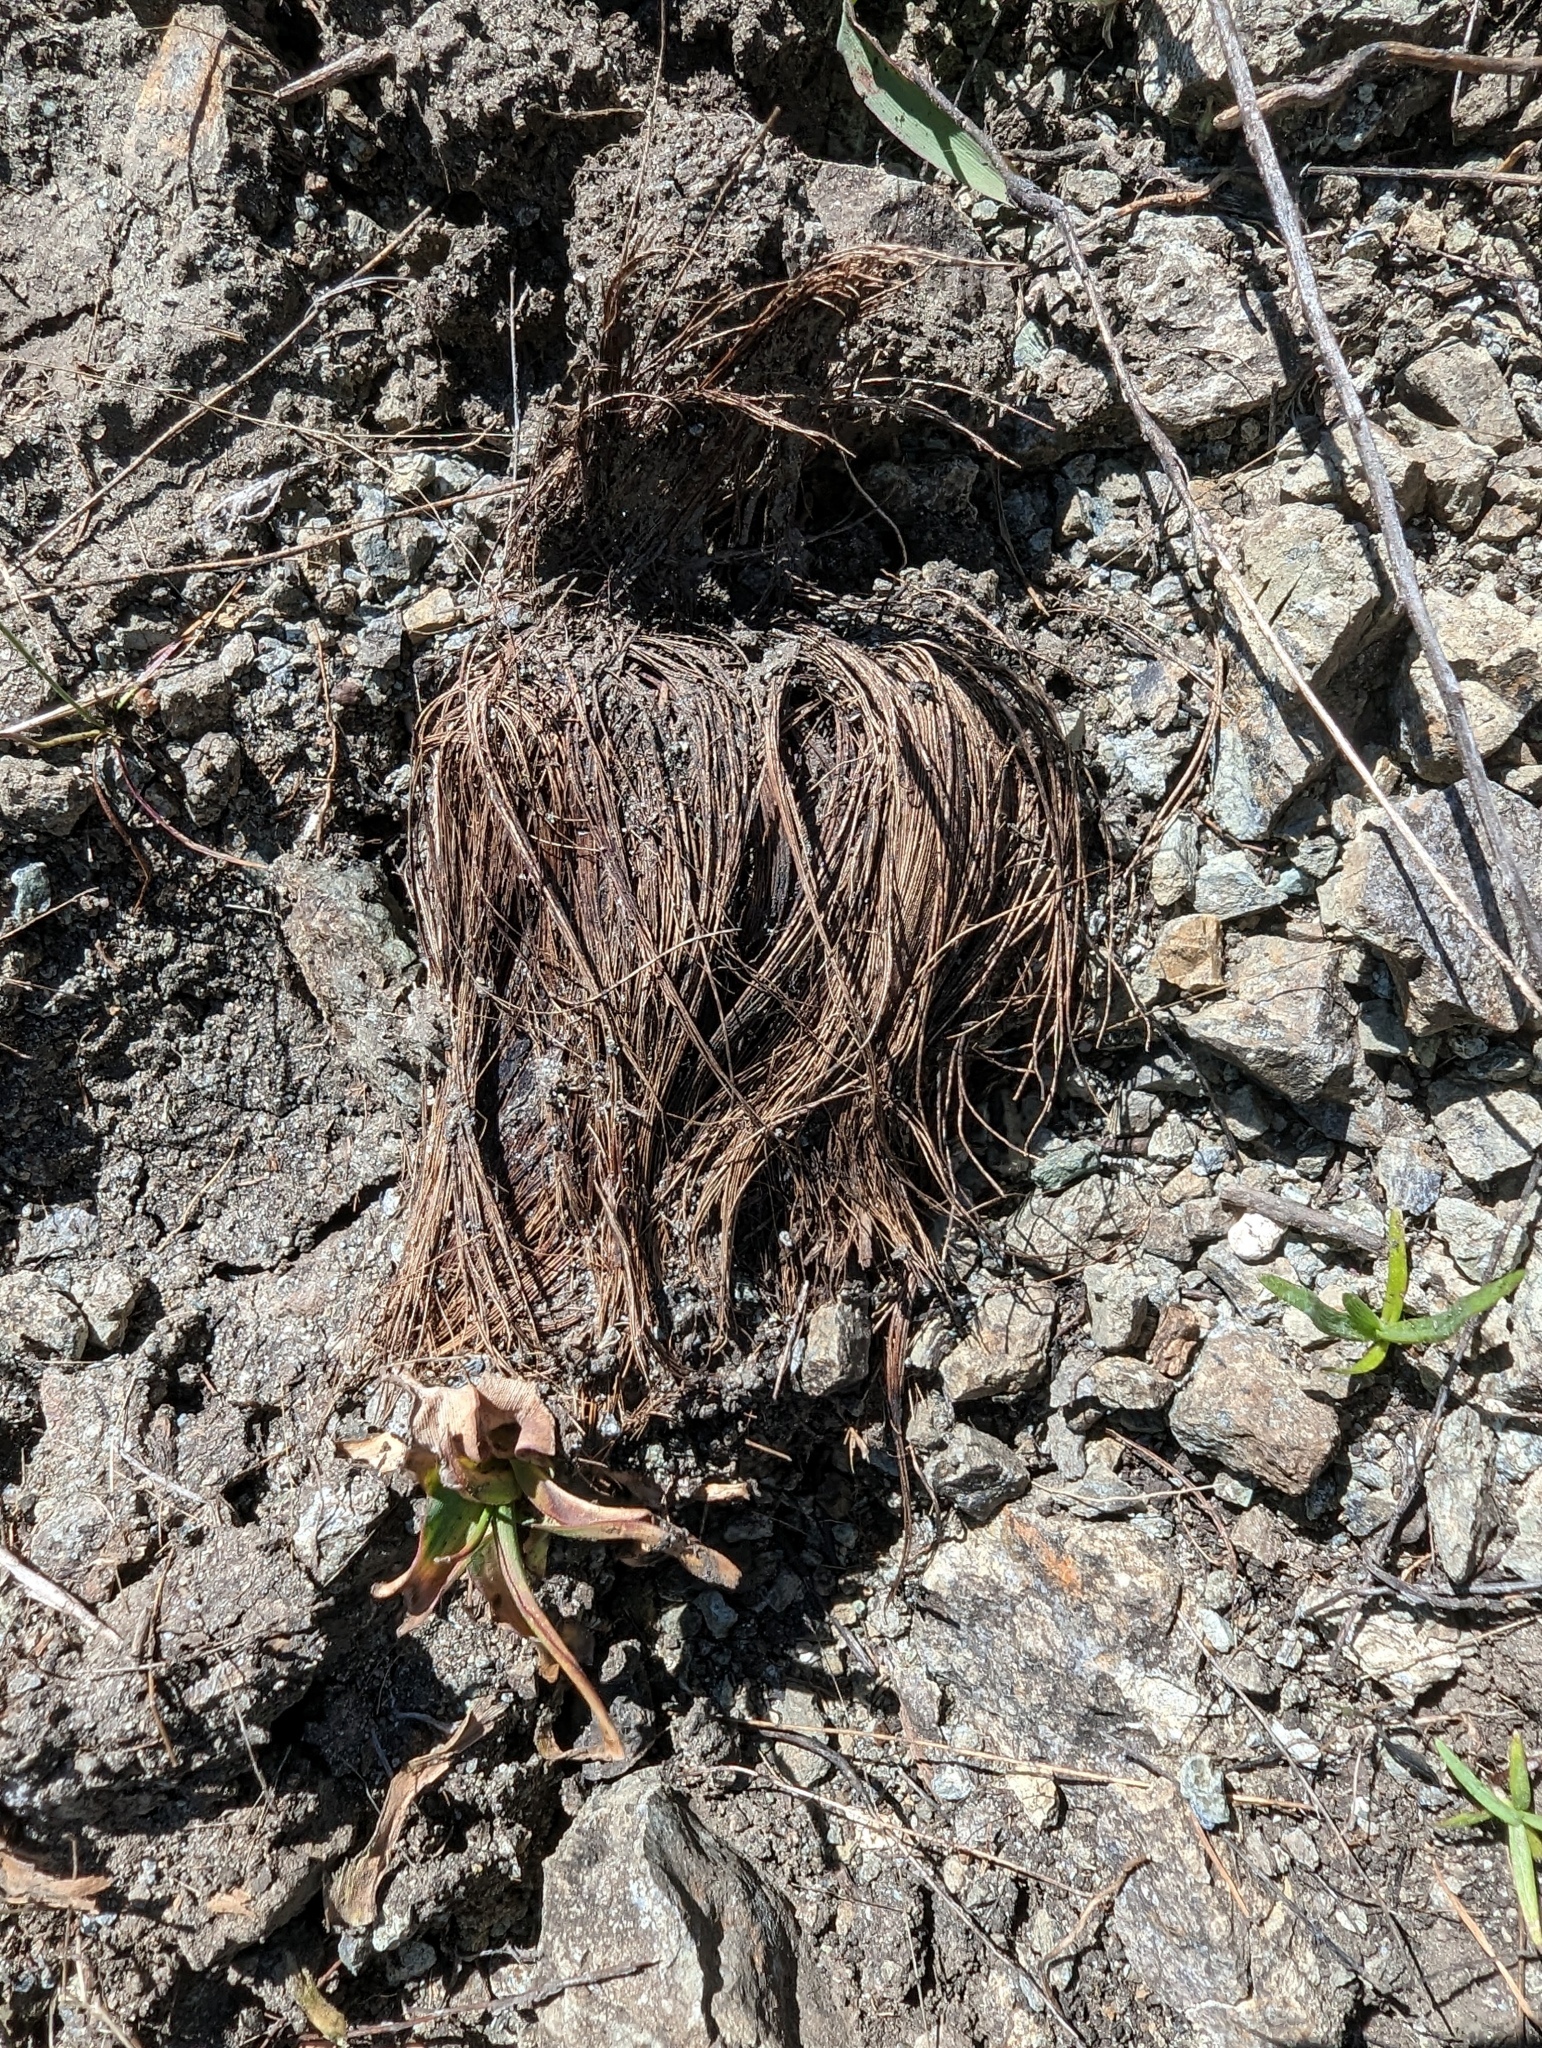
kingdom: Plantae
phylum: Tracheophyta
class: Liliopsida
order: Asparagales
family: Asparagaceae
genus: Chlorogalum
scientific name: Chlorogalum pomeridianum
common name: Amole
